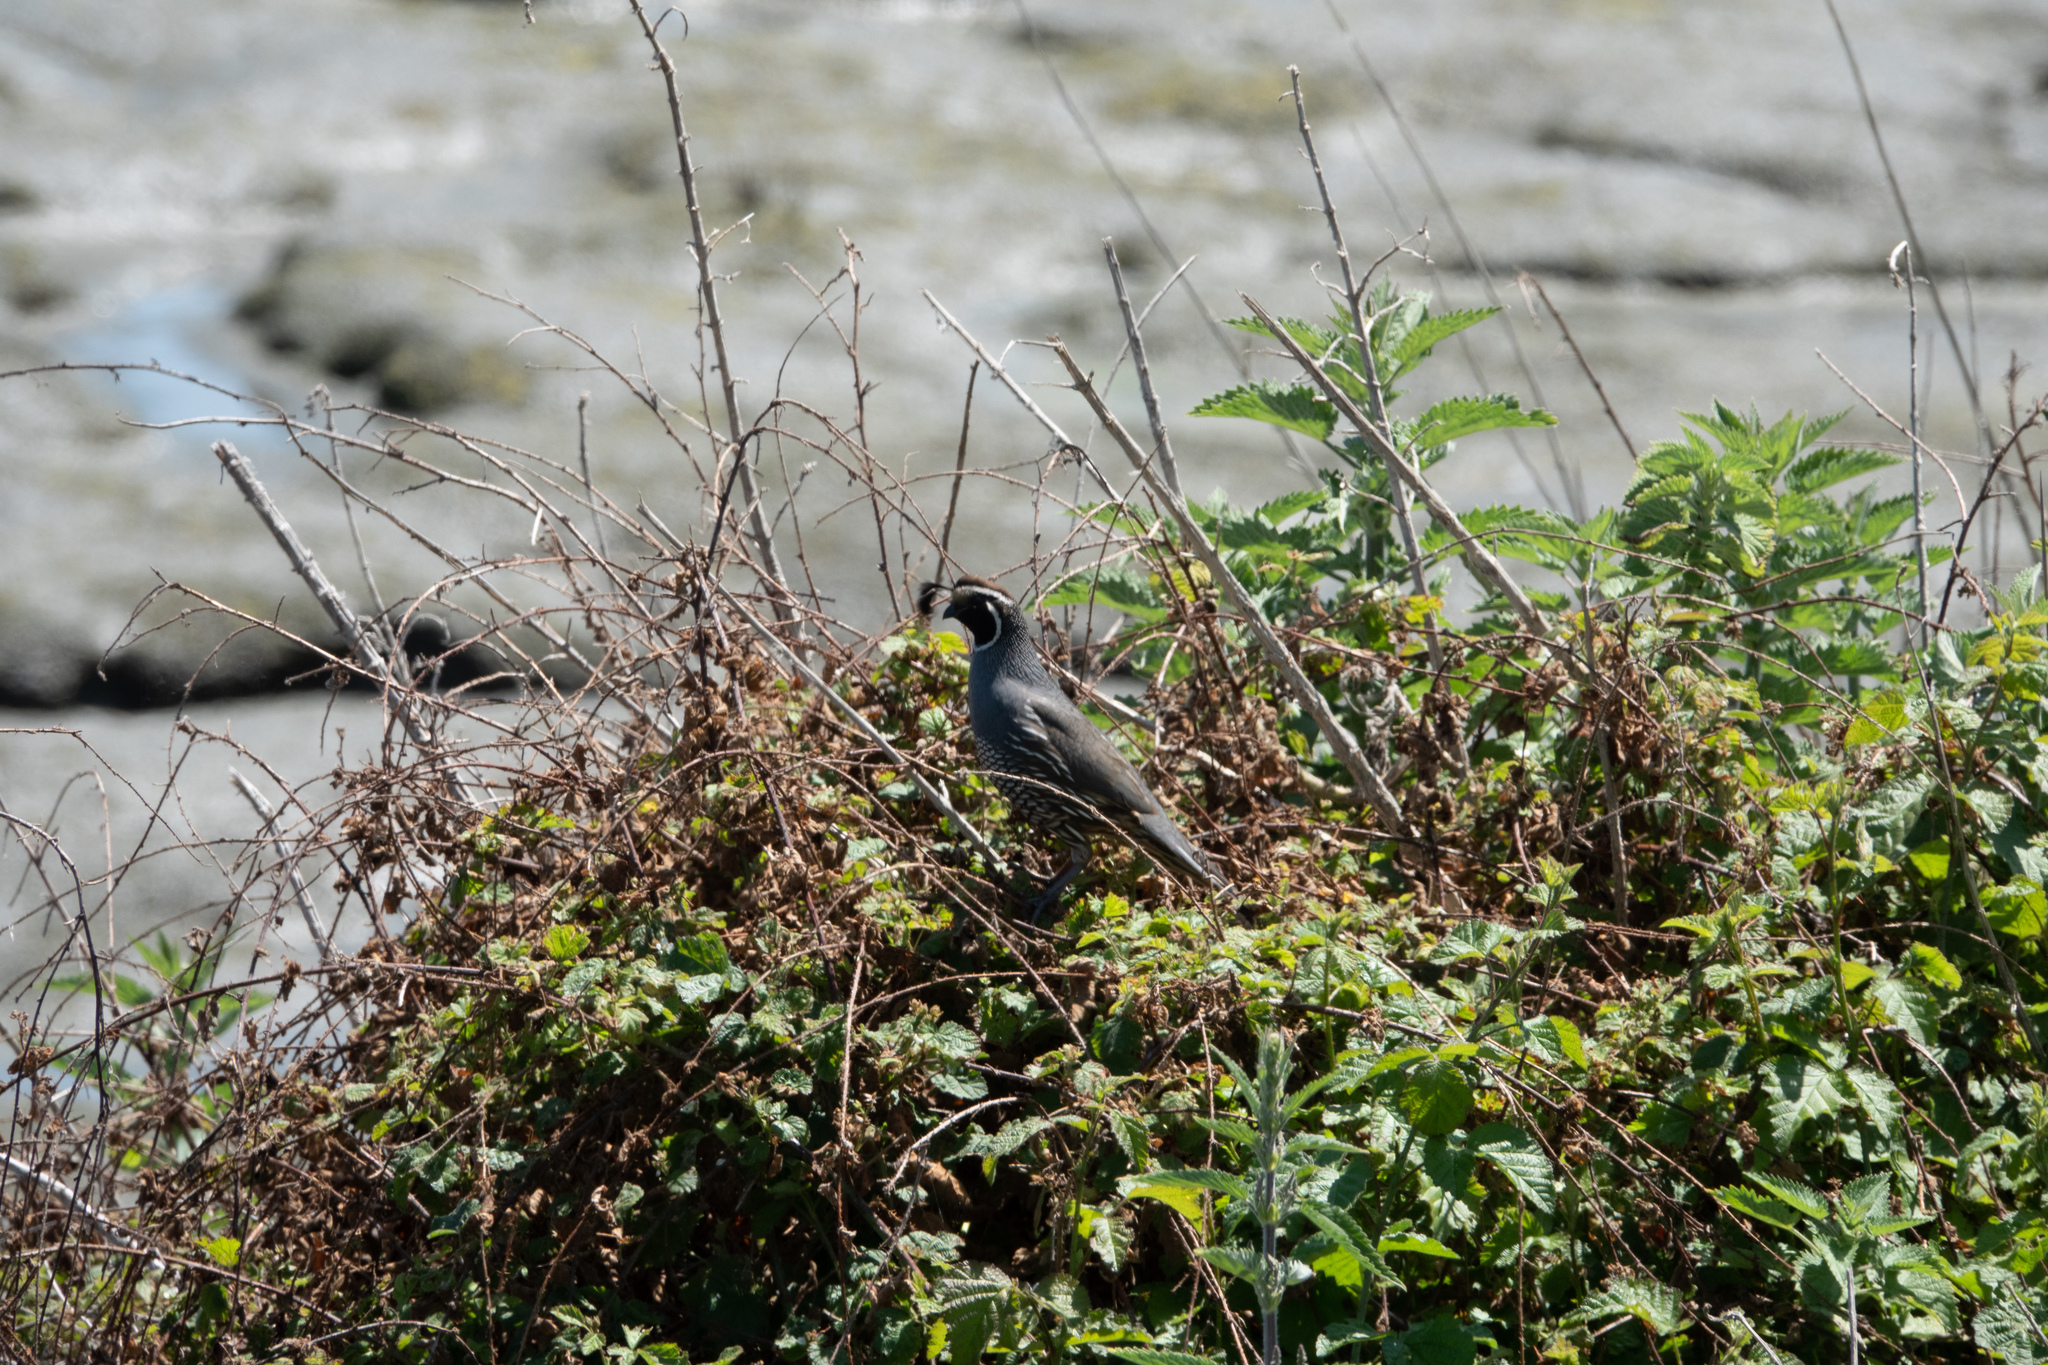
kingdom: Animalia
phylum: Chordata
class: Aves
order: Galliformes
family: Odontophoridae
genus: Callipepla
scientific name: Callipepla californica
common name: California quail
